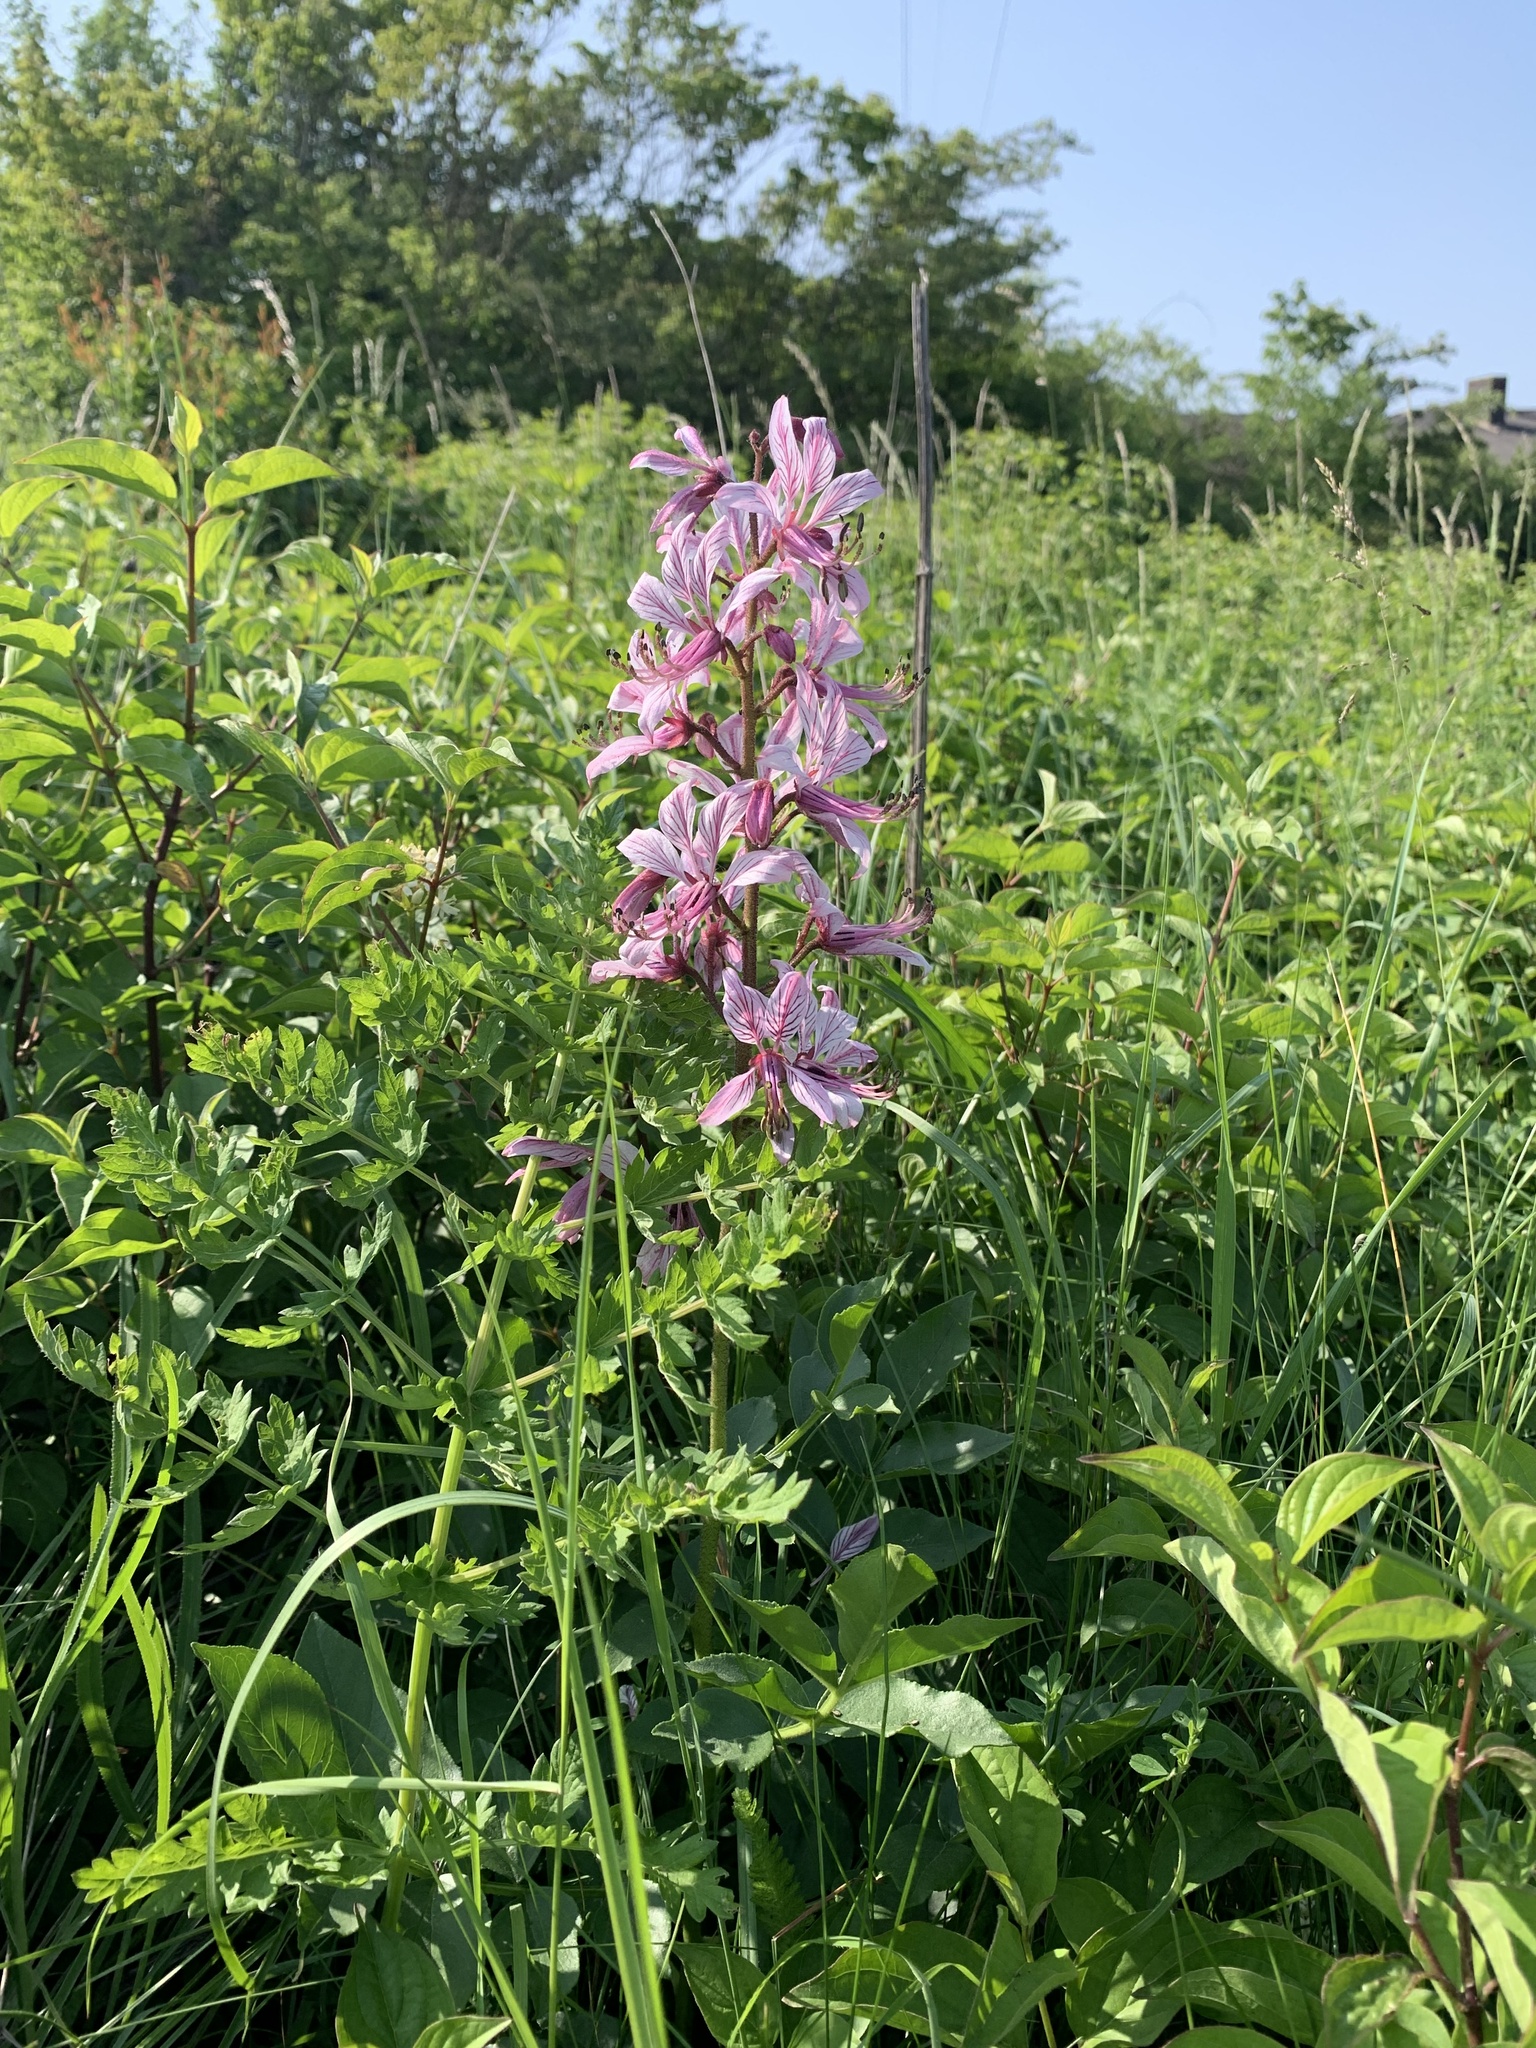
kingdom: Plantae
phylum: Tracheophyta
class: Magnoliopsida
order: Sapindales
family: Rutaceae
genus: Dictamnus
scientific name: Dictamnus albus
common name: Gasplant
